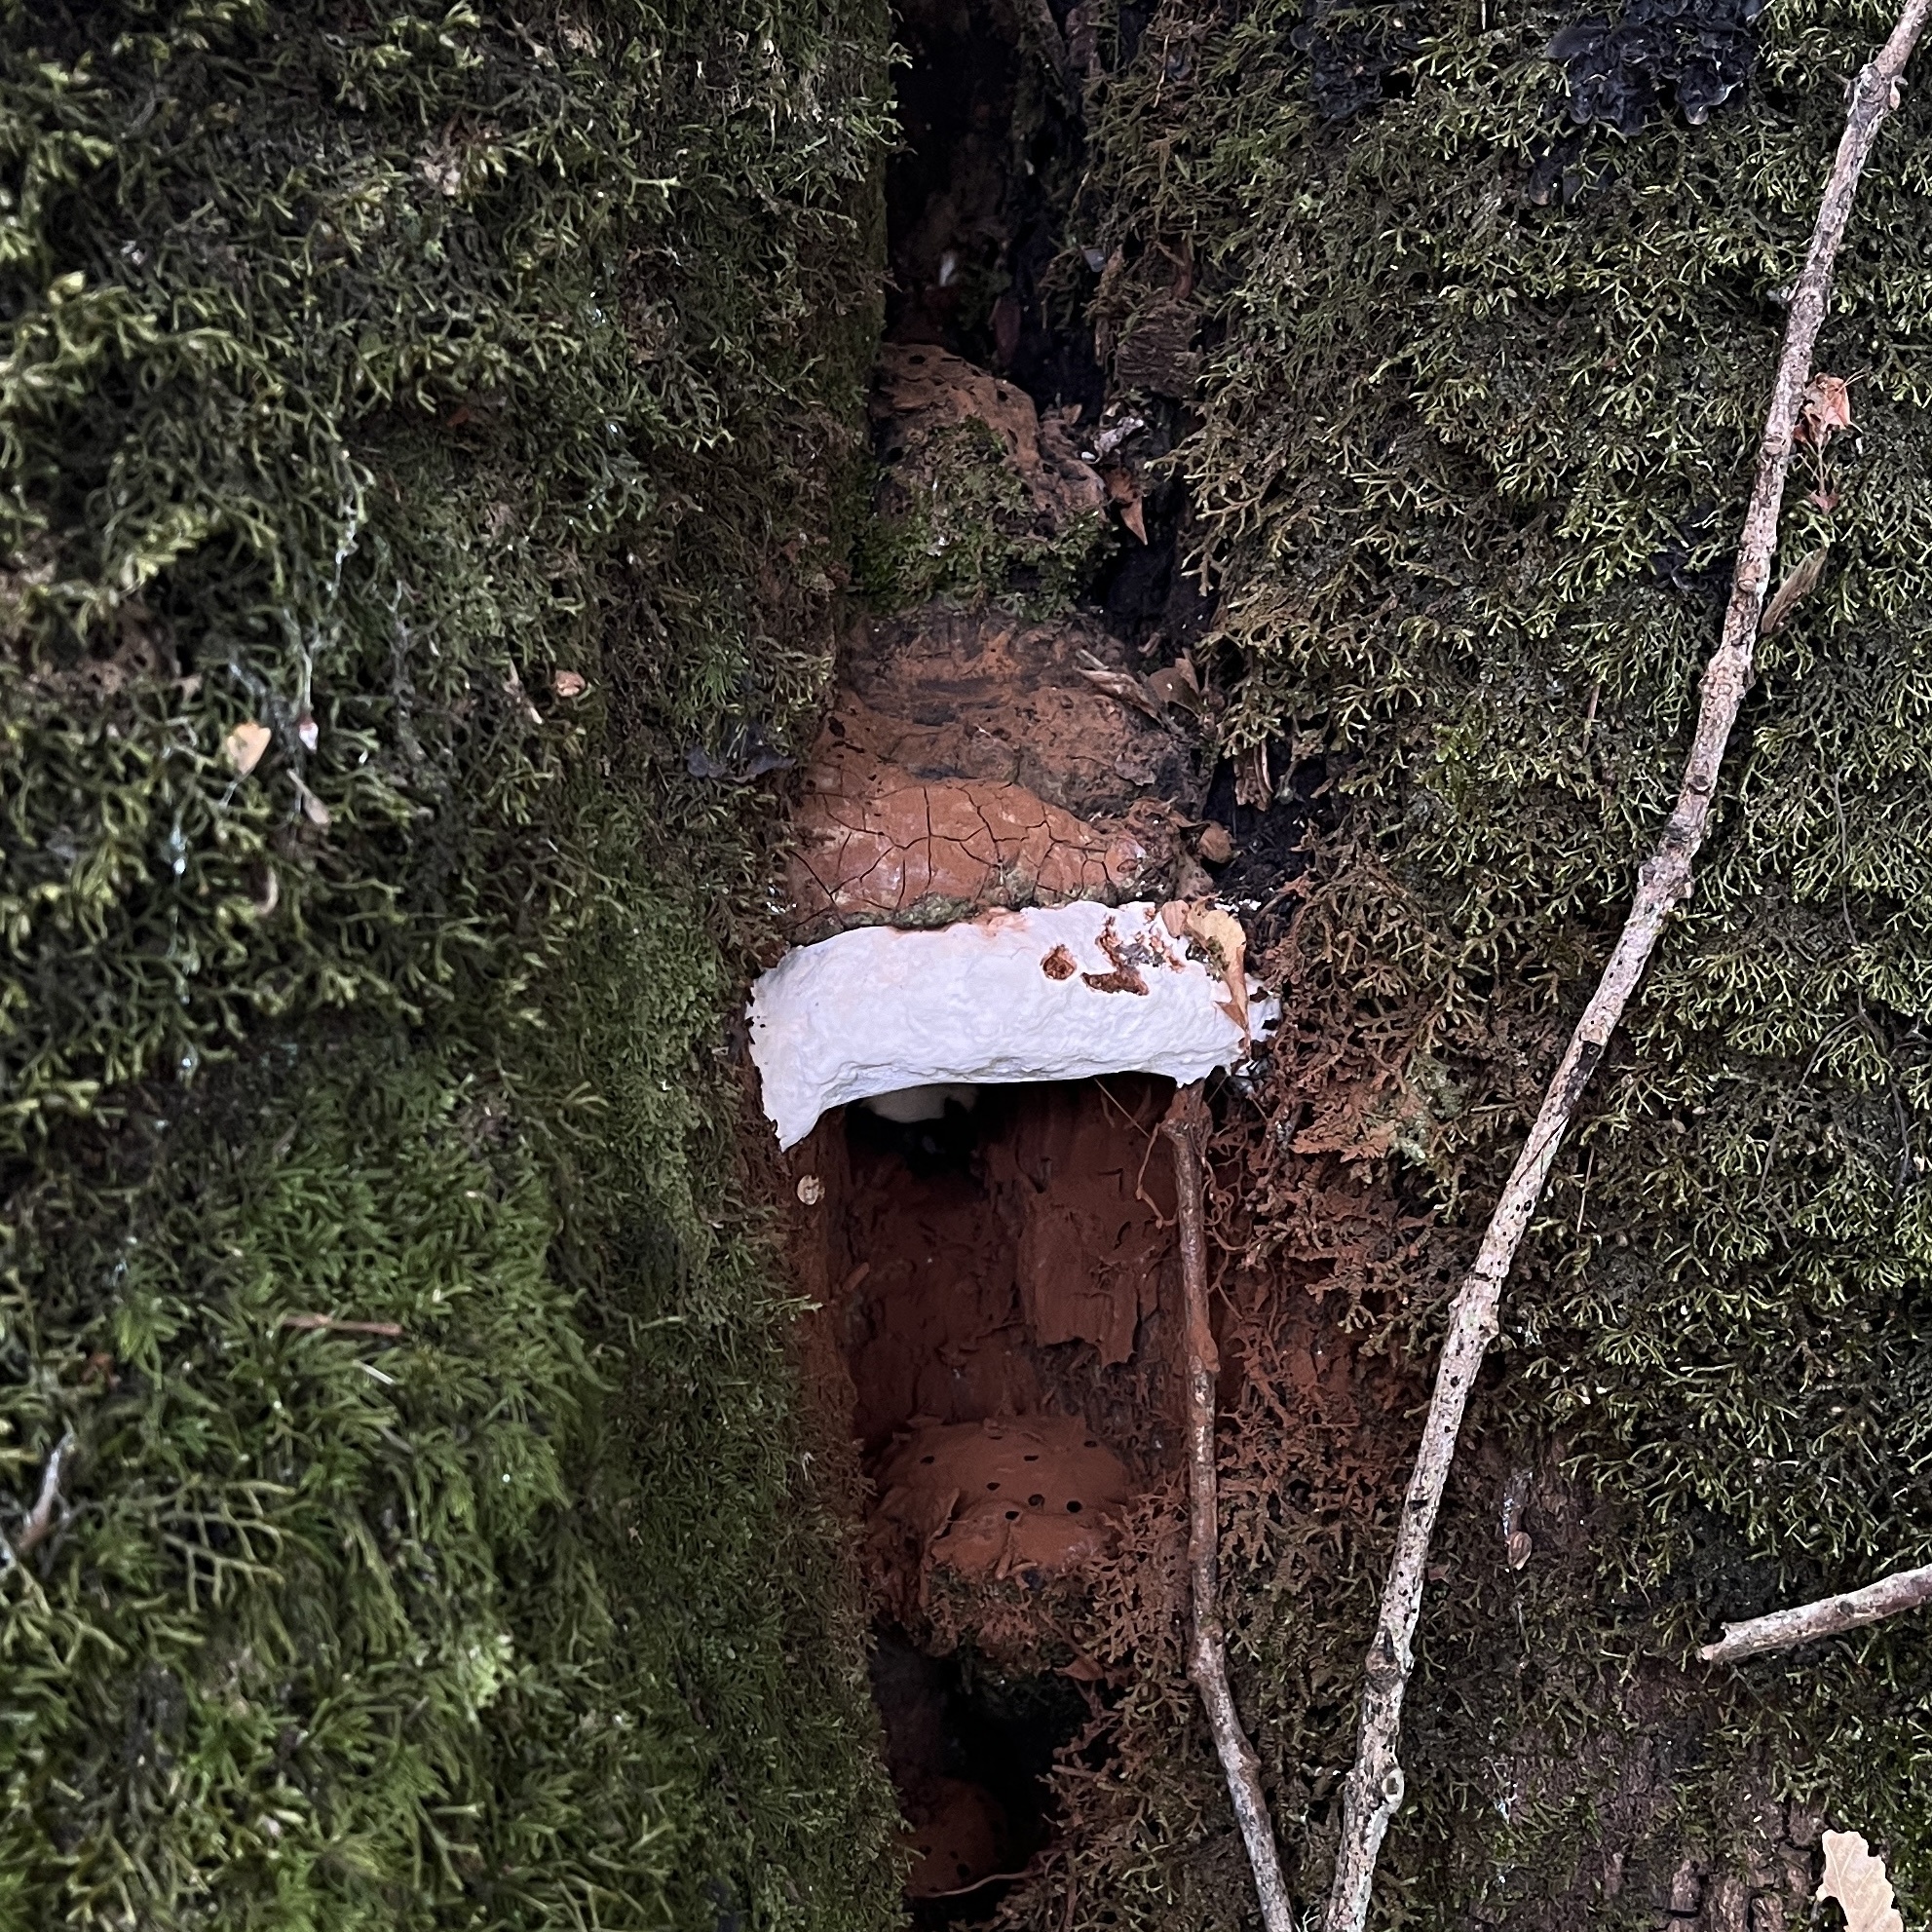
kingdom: Fungi
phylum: Basidiomycota
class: Agaricomycetes
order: Polyporales
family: Polyporaceae
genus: Ganoderma
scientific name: Ganoderma australe
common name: Southern bracket
